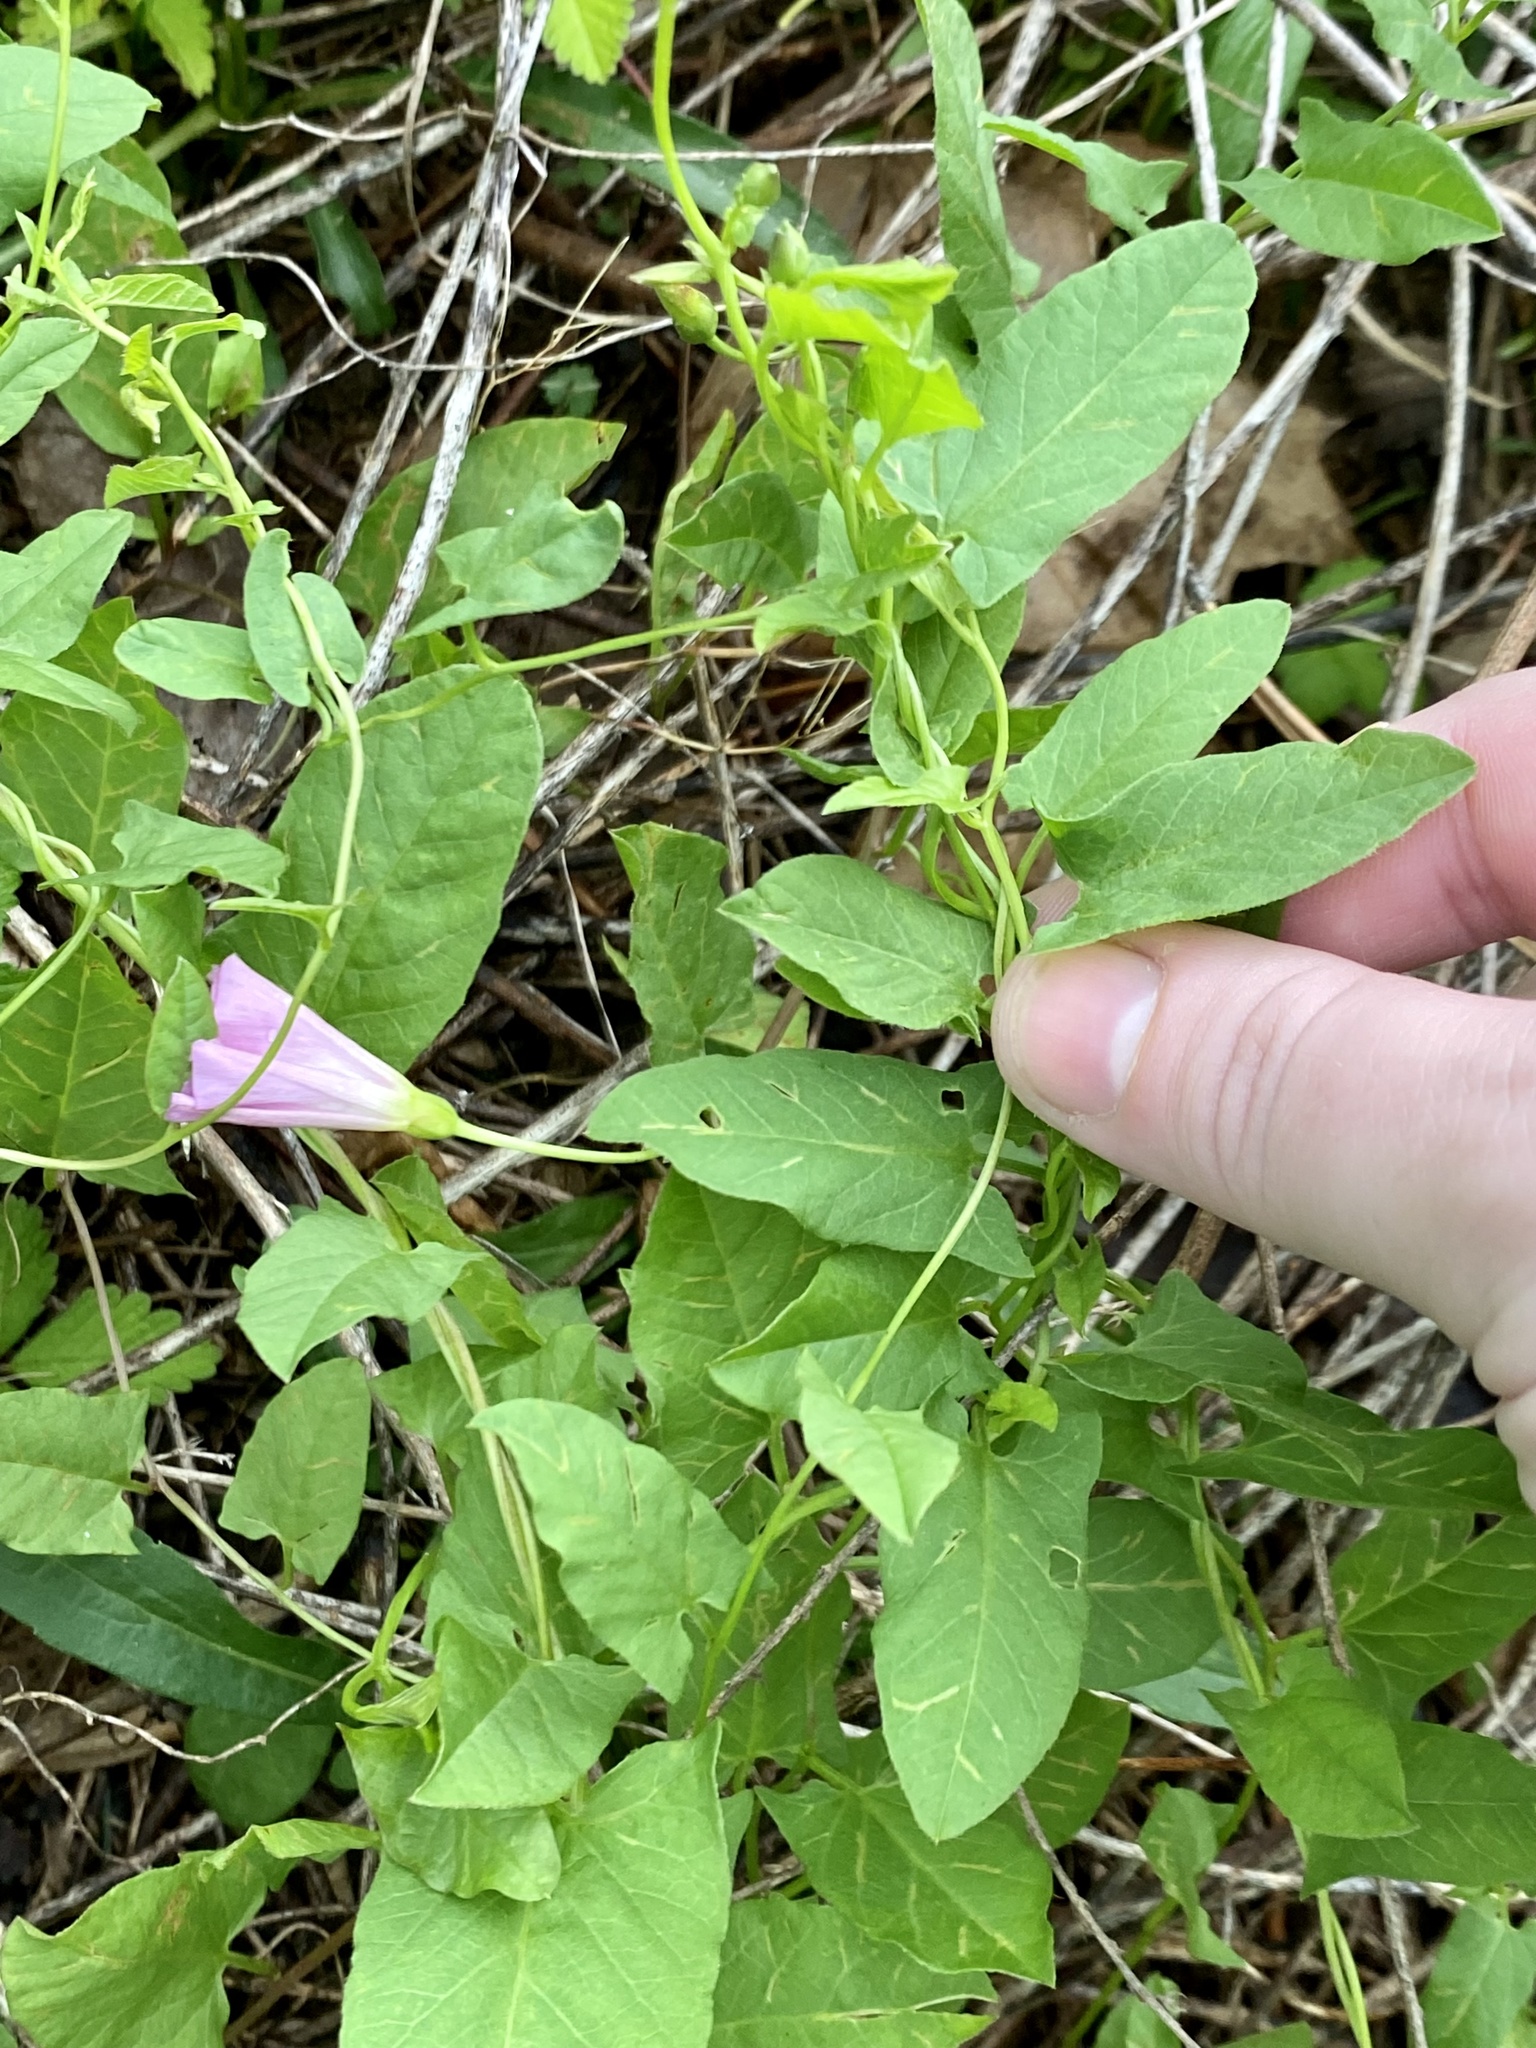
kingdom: Plantae
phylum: Tracheophyta
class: Magnoliopsida
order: Solanales
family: Convolvulaceae
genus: Convolvulus
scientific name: Convolvulus arvensis
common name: Field bindweed
